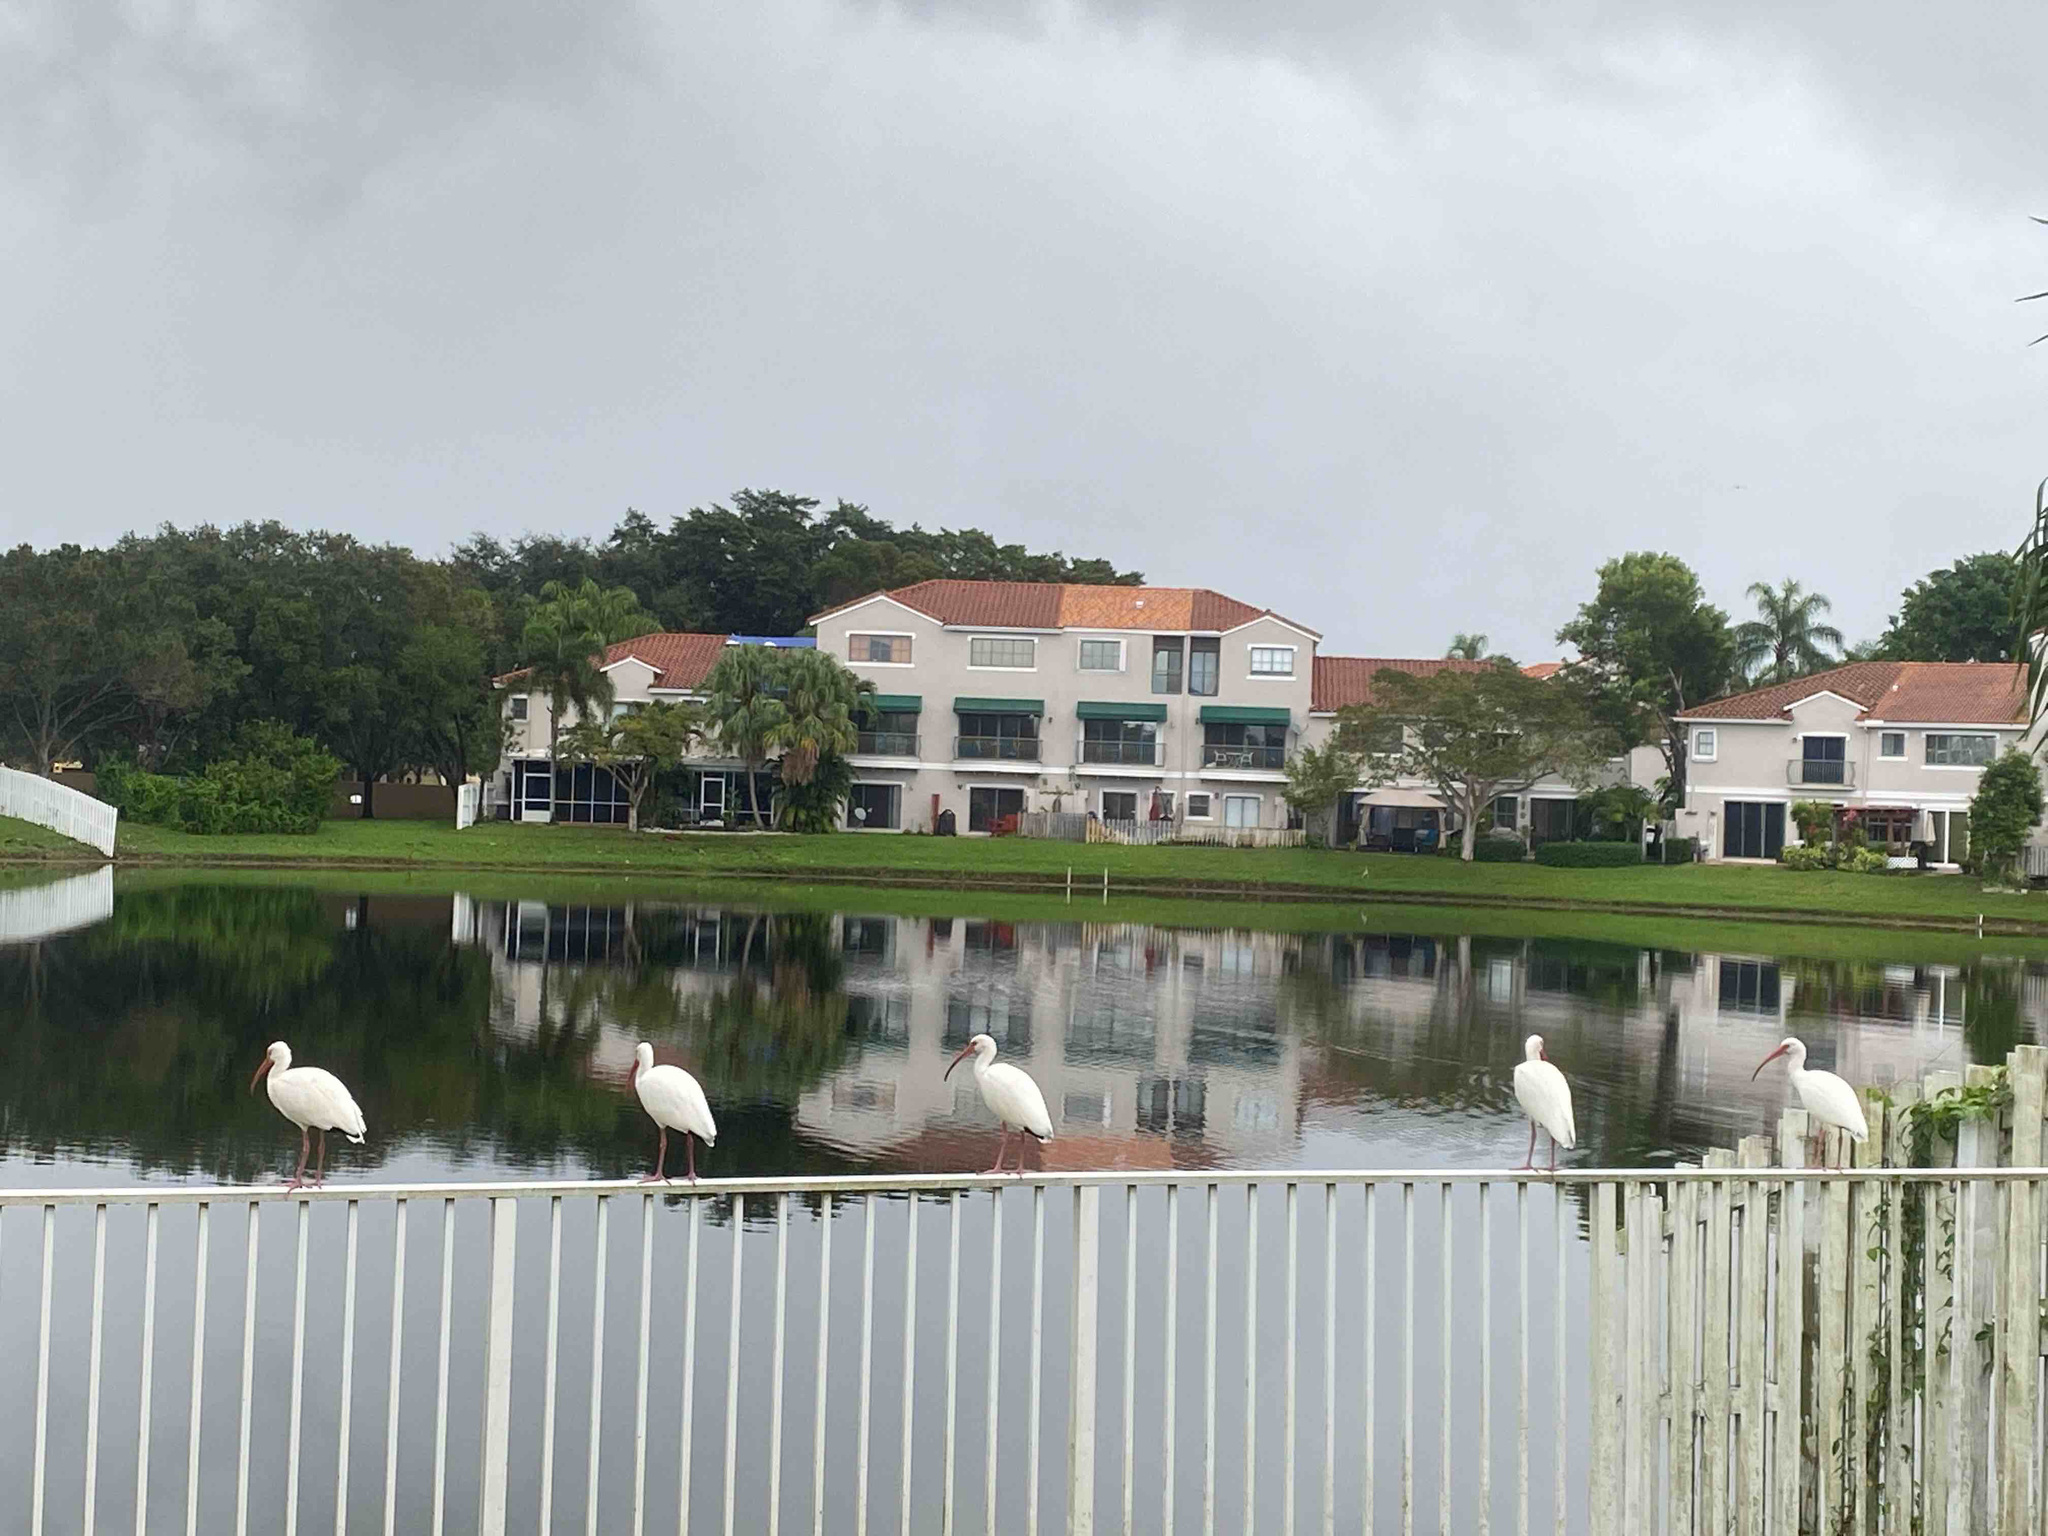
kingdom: Animalia
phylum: Chordata
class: Aves
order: Pelecaniformes
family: Threskiornithidae
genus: Eudocimus
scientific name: Eudocimus albus
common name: White ibis
